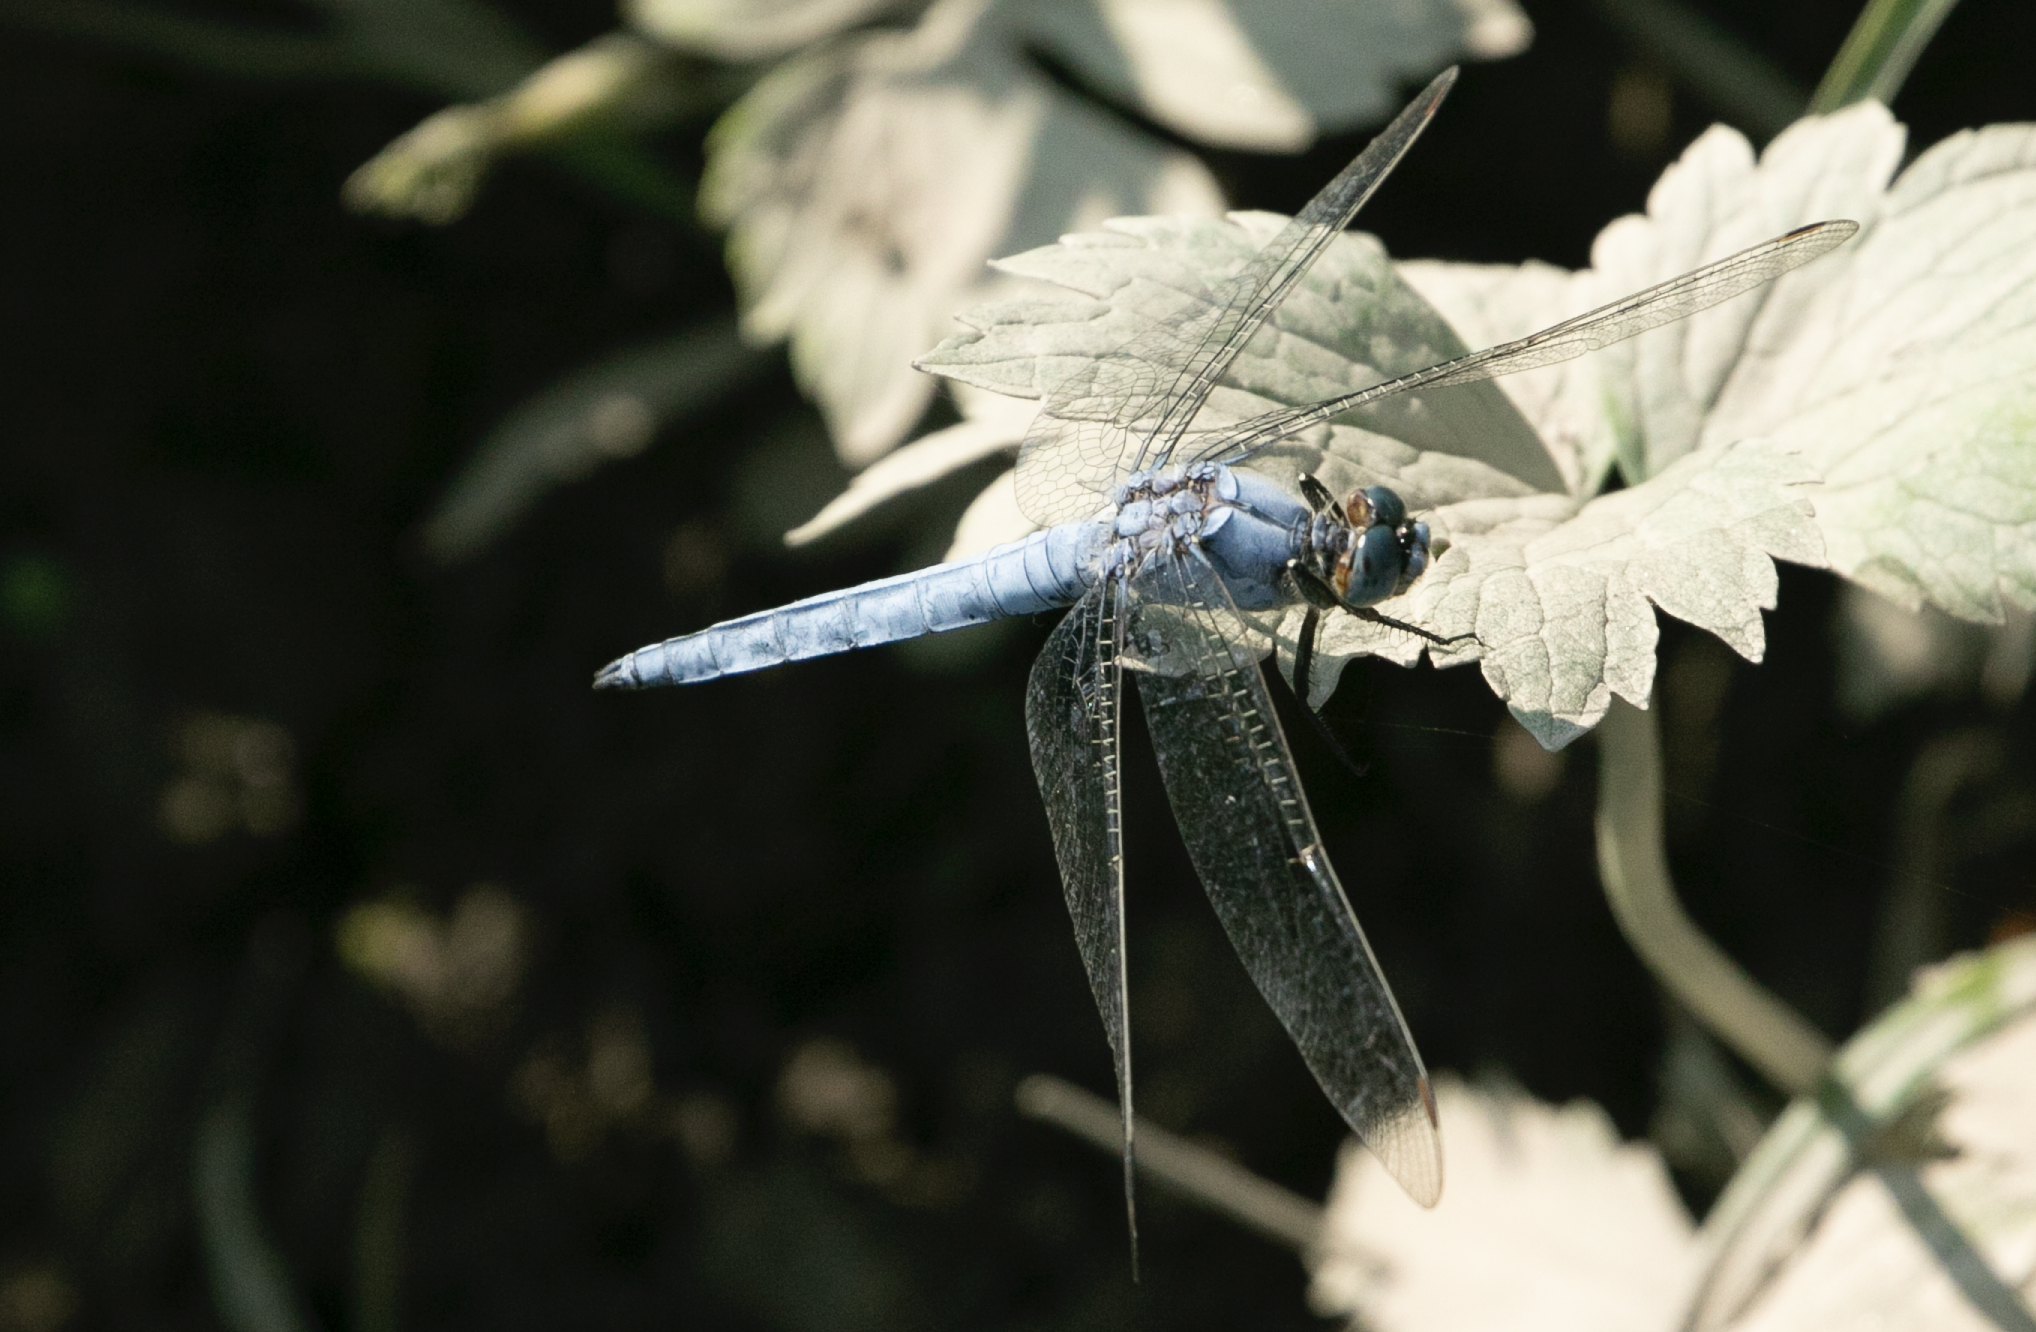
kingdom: Animalia
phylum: Arthropoda
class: Insecta
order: Odonata
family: Libellulidae
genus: Orthetrum
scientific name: Orthetrum brunneum
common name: Southern skimmer
